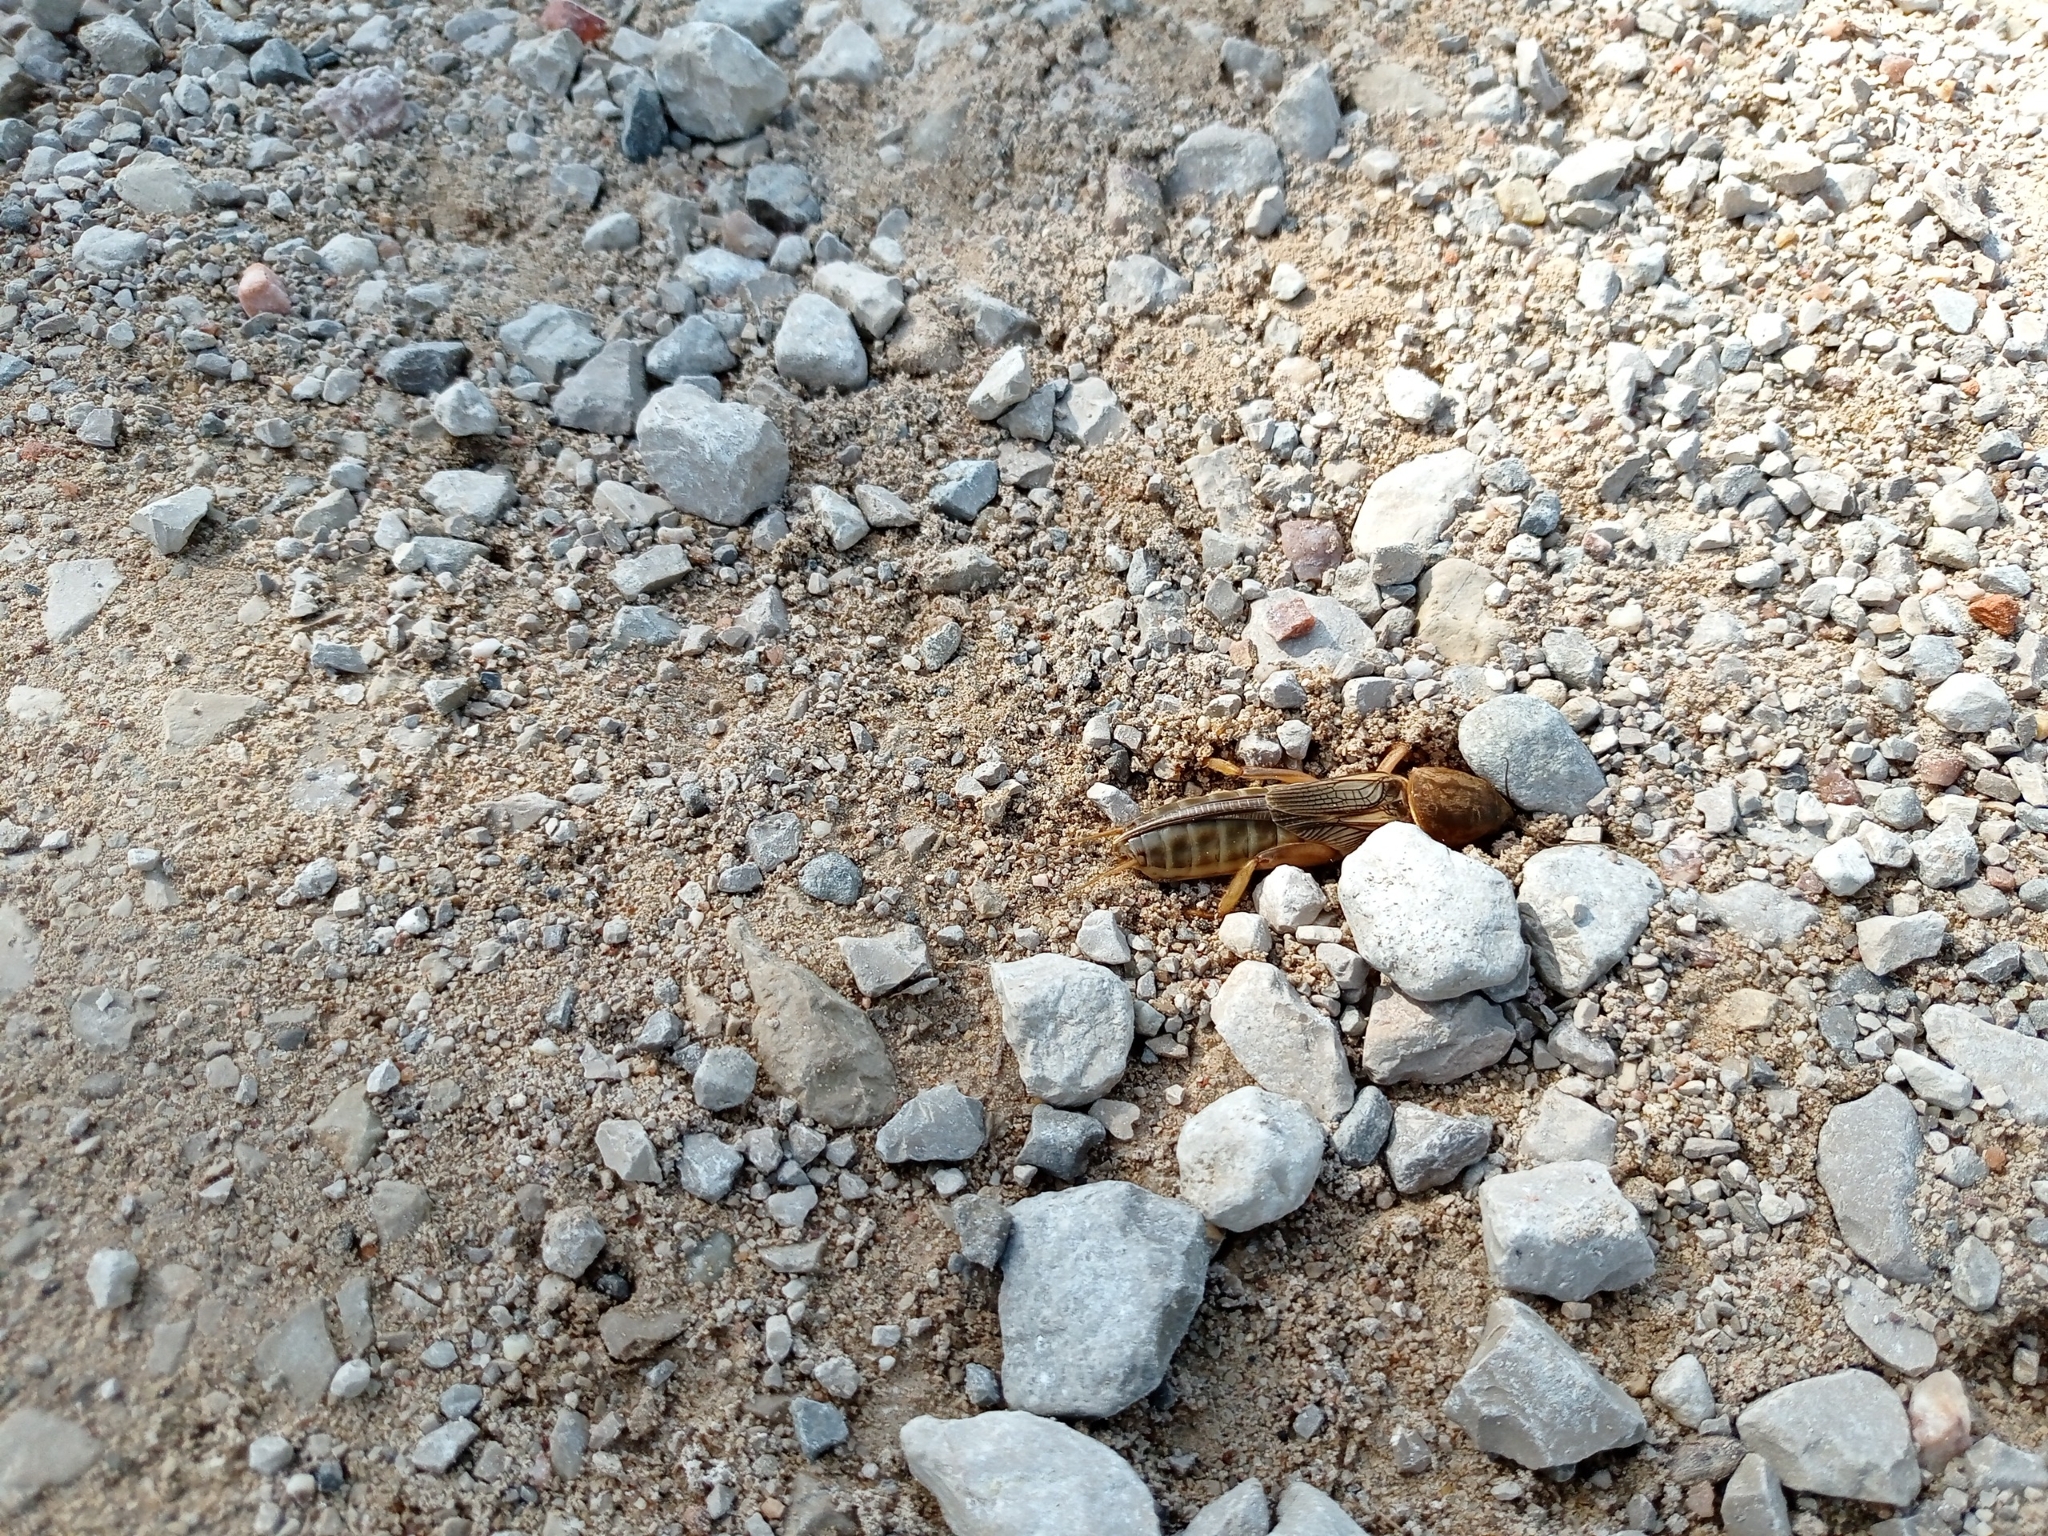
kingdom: Animalia
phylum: Arthropoda
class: Insecta
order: Orthoptera
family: Gryllotalpidae
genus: Gryllotalpa
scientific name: Gryllotalpa vineae
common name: Vineyard mole-cricket
